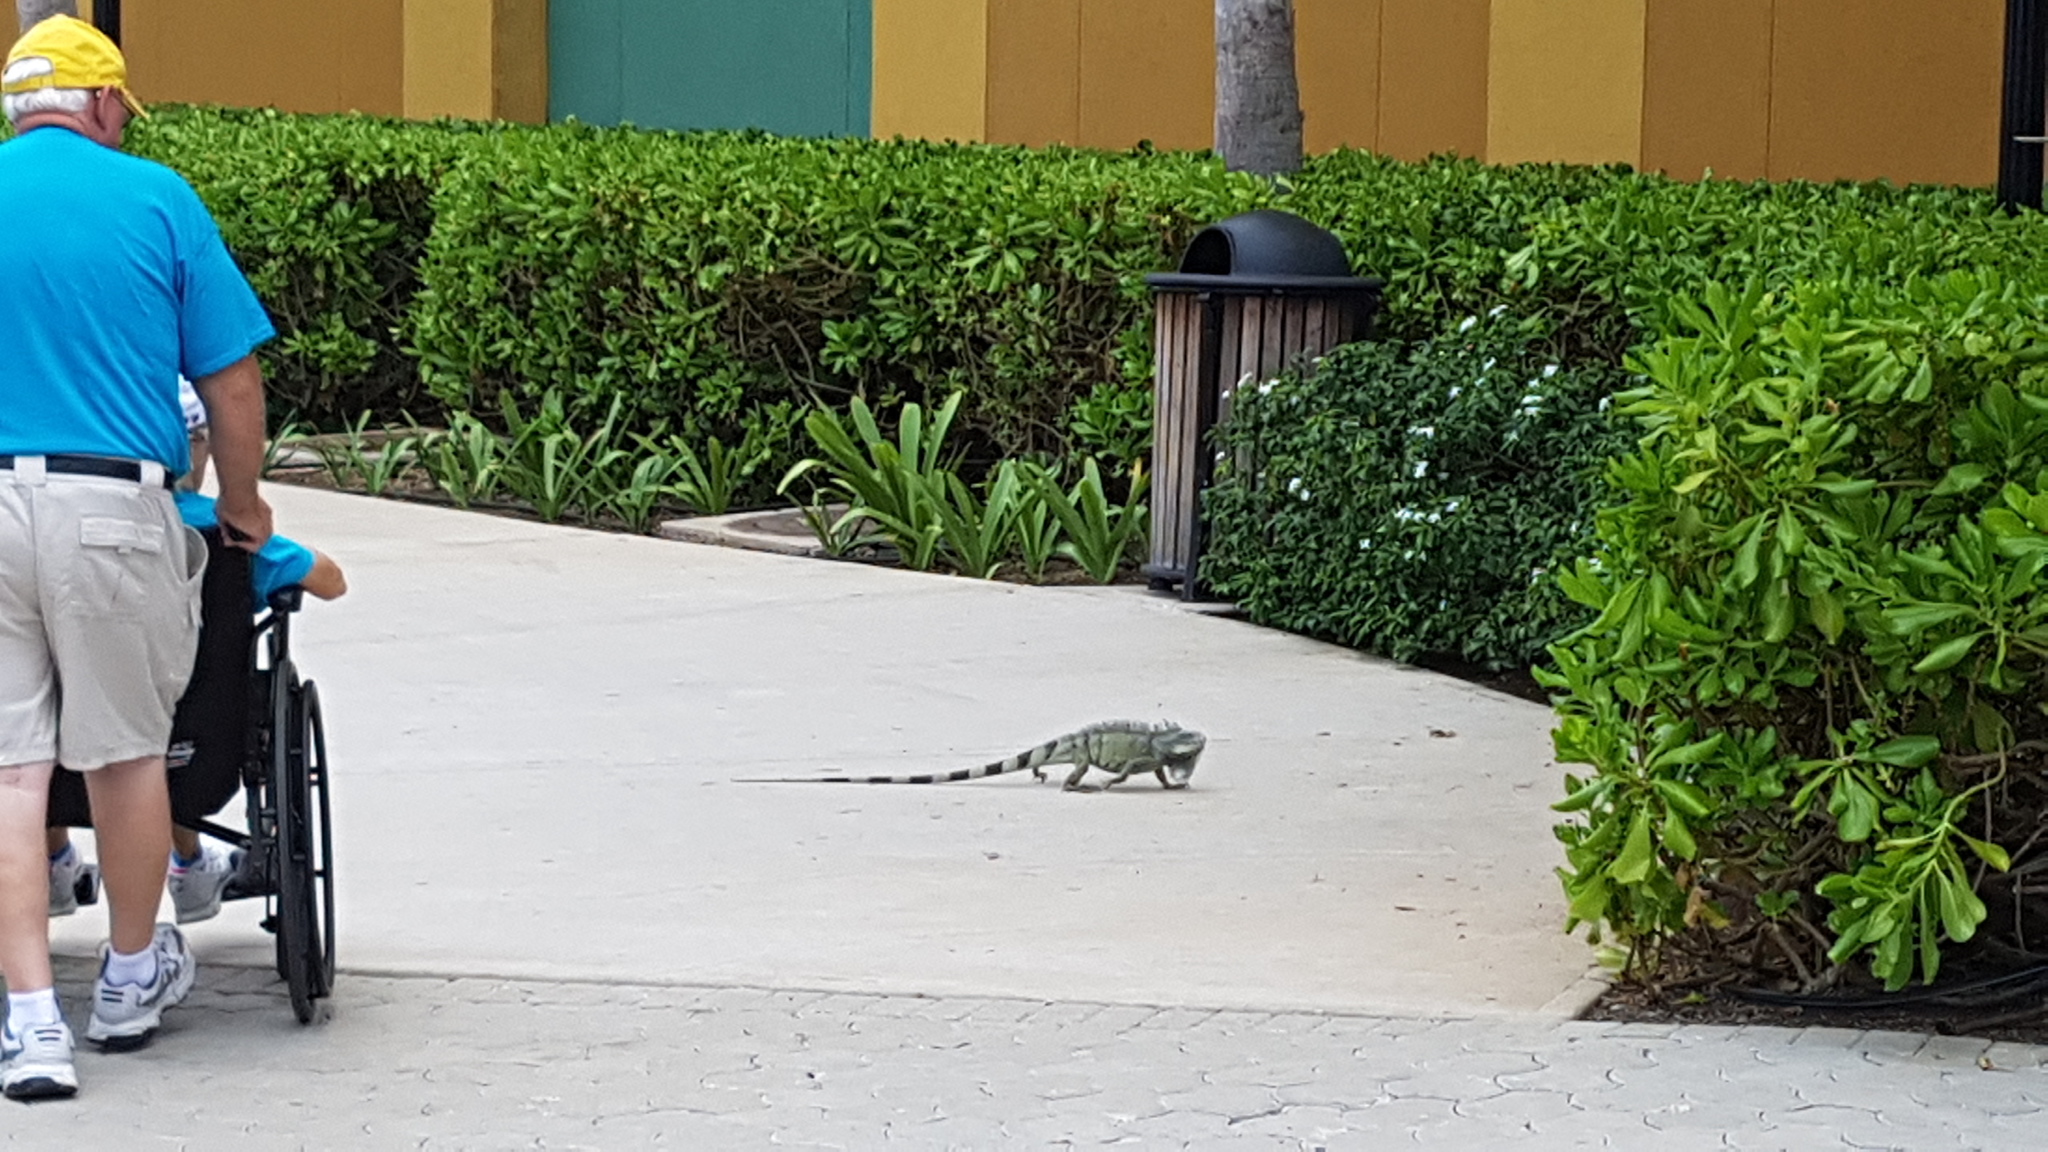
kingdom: Animalia
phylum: Chordata
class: Squamata
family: Iguanidae
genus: Iguana
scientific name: Iguana iguana
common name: Green iguana
